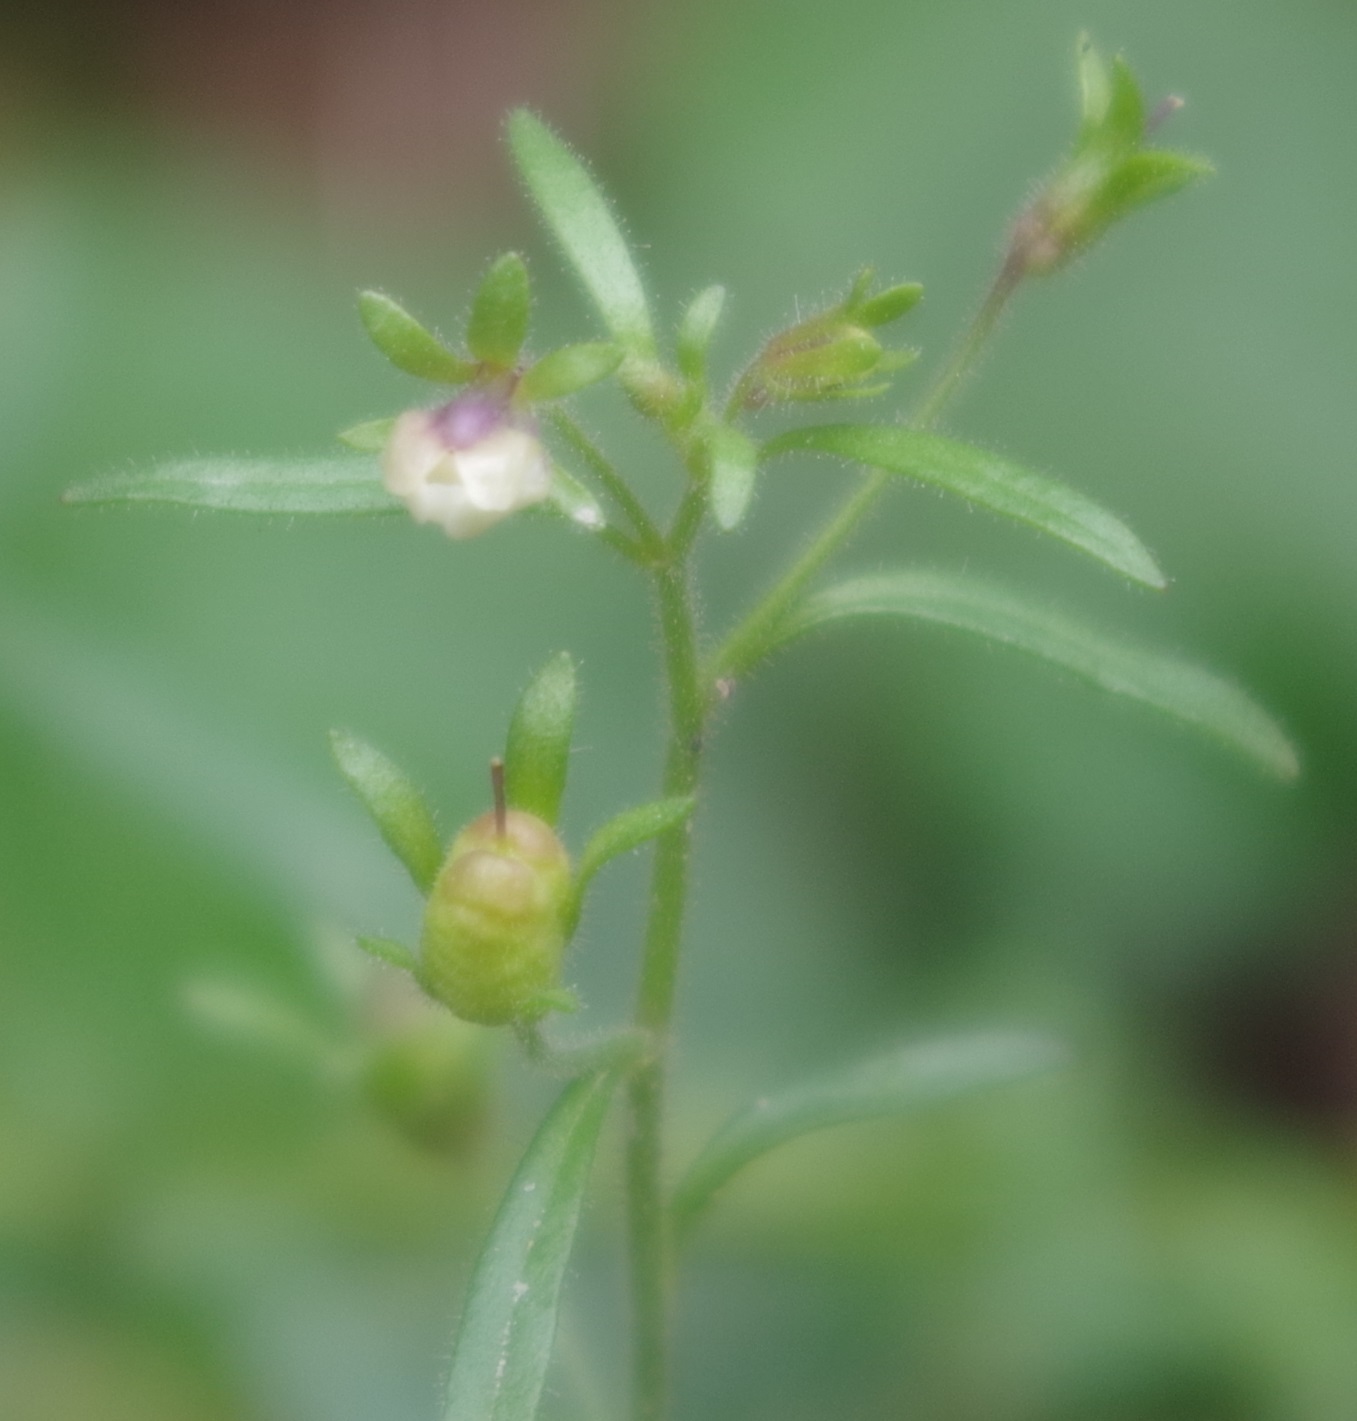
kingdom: Plantae
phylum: Tracheophyta
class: Magnoliopsida
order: Lamiales
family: Plantaginaceae
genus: Chaenorhinum
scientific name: Chaenorhinum minus
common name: Dwarf snapdragon
